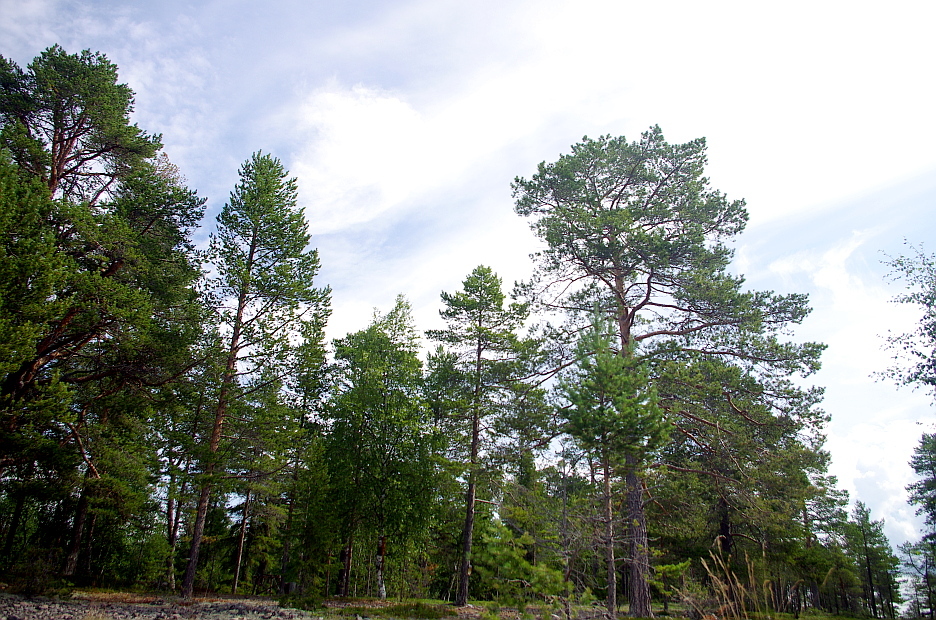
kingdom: Plantae
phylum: Tracheophyta
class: Pinopsida
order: Pinales
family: Pinaceae
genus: Pinus
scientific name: Pinus sylvestris
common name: Scots pine
